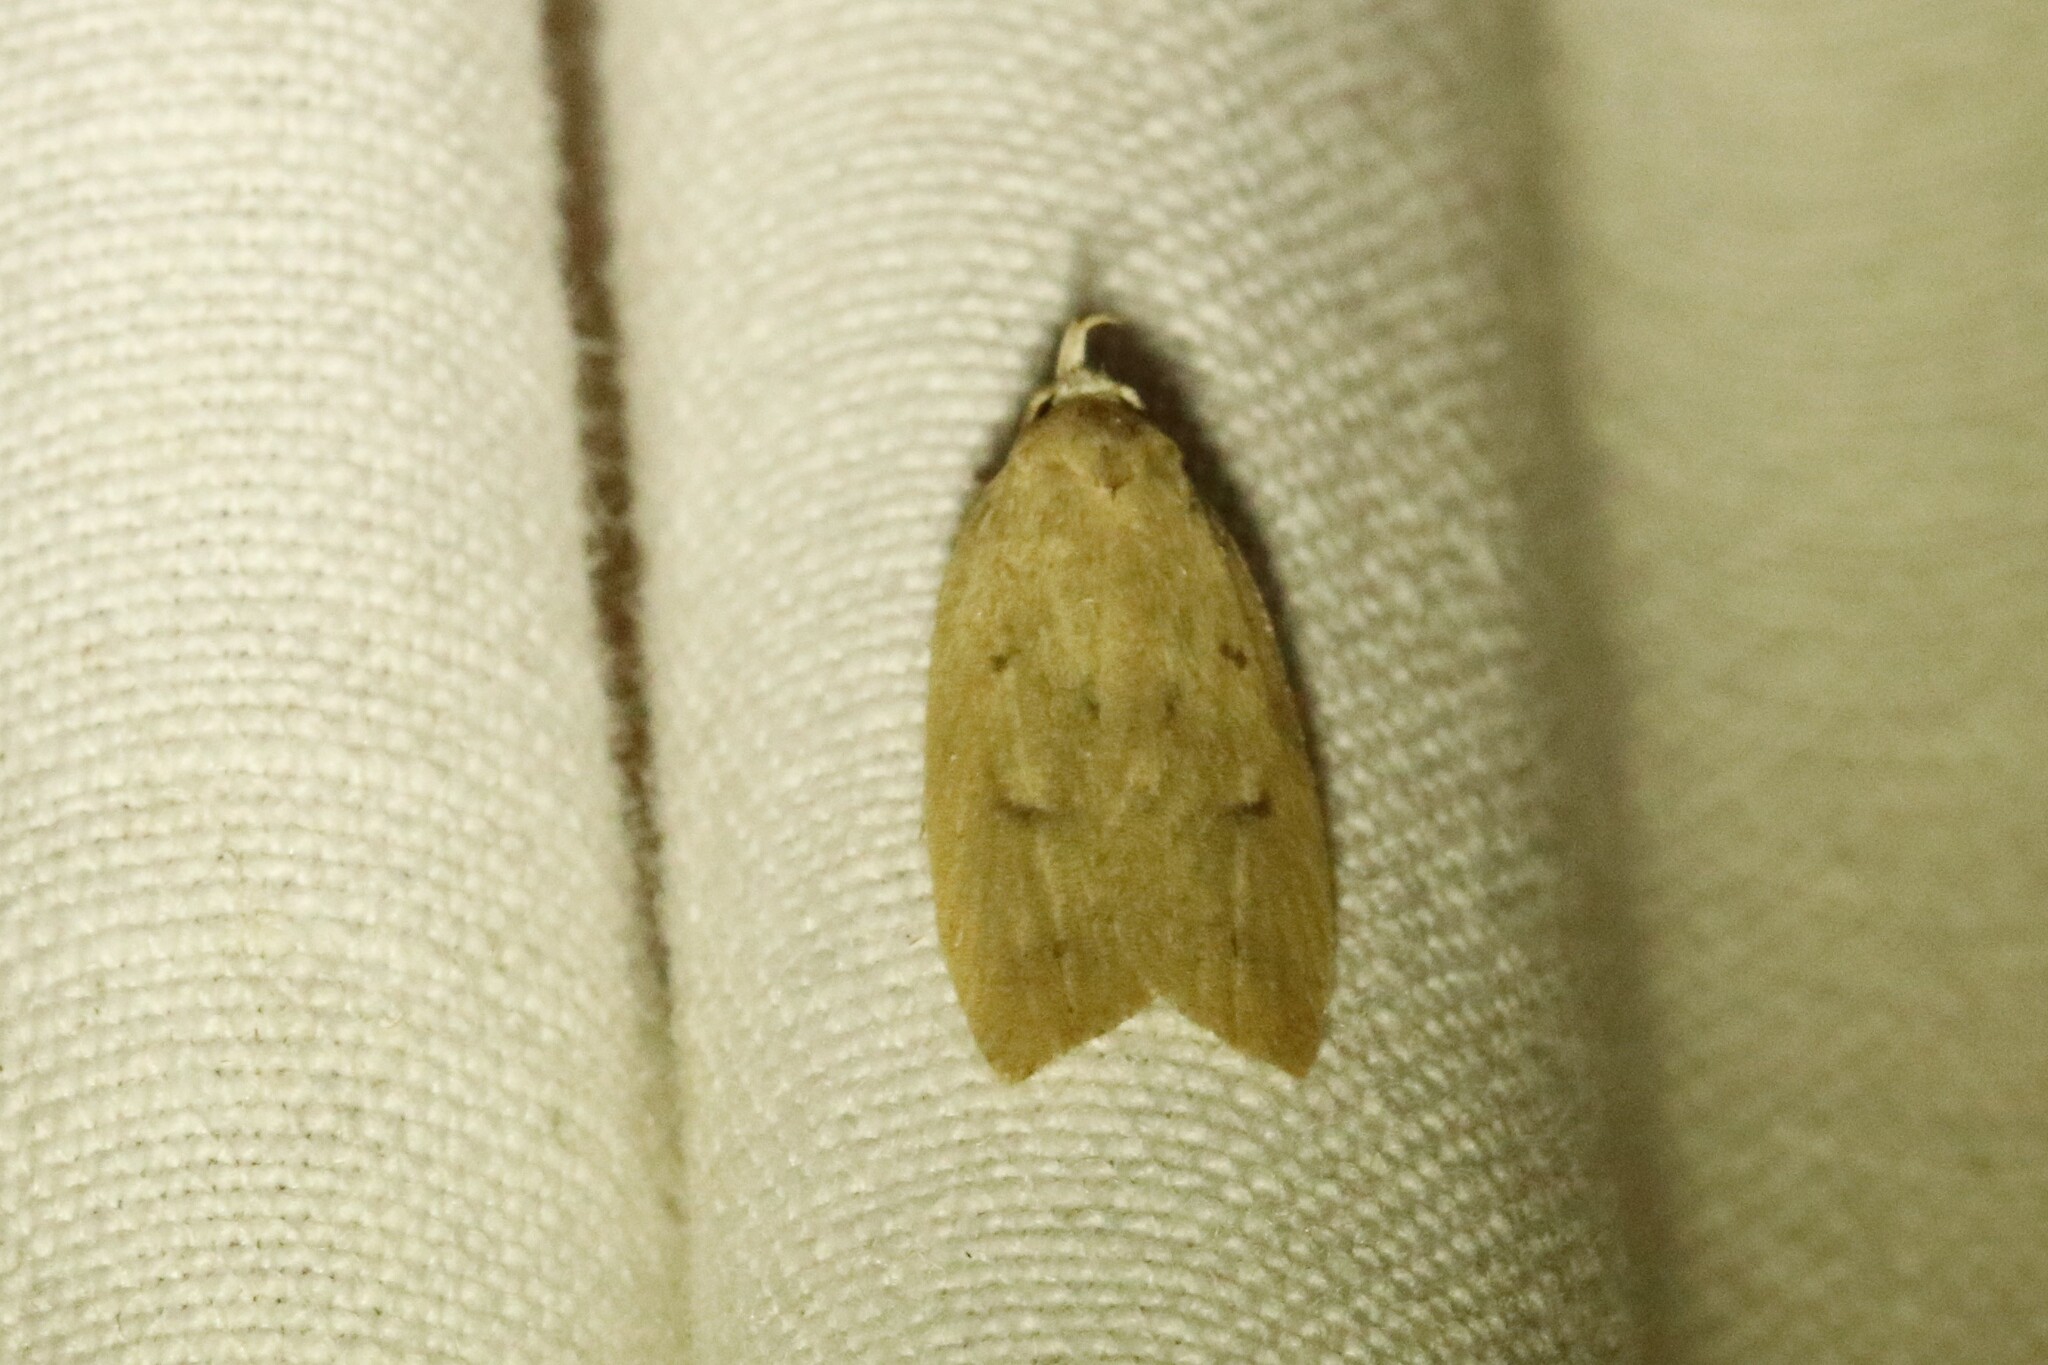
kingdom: Animalia
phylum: Arthropoda
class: Insecta
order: Lepidoptera
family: Peleopodidae
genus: Machimia
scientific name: Machimia tentoriferella
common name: Gold-striped leaftier moth
